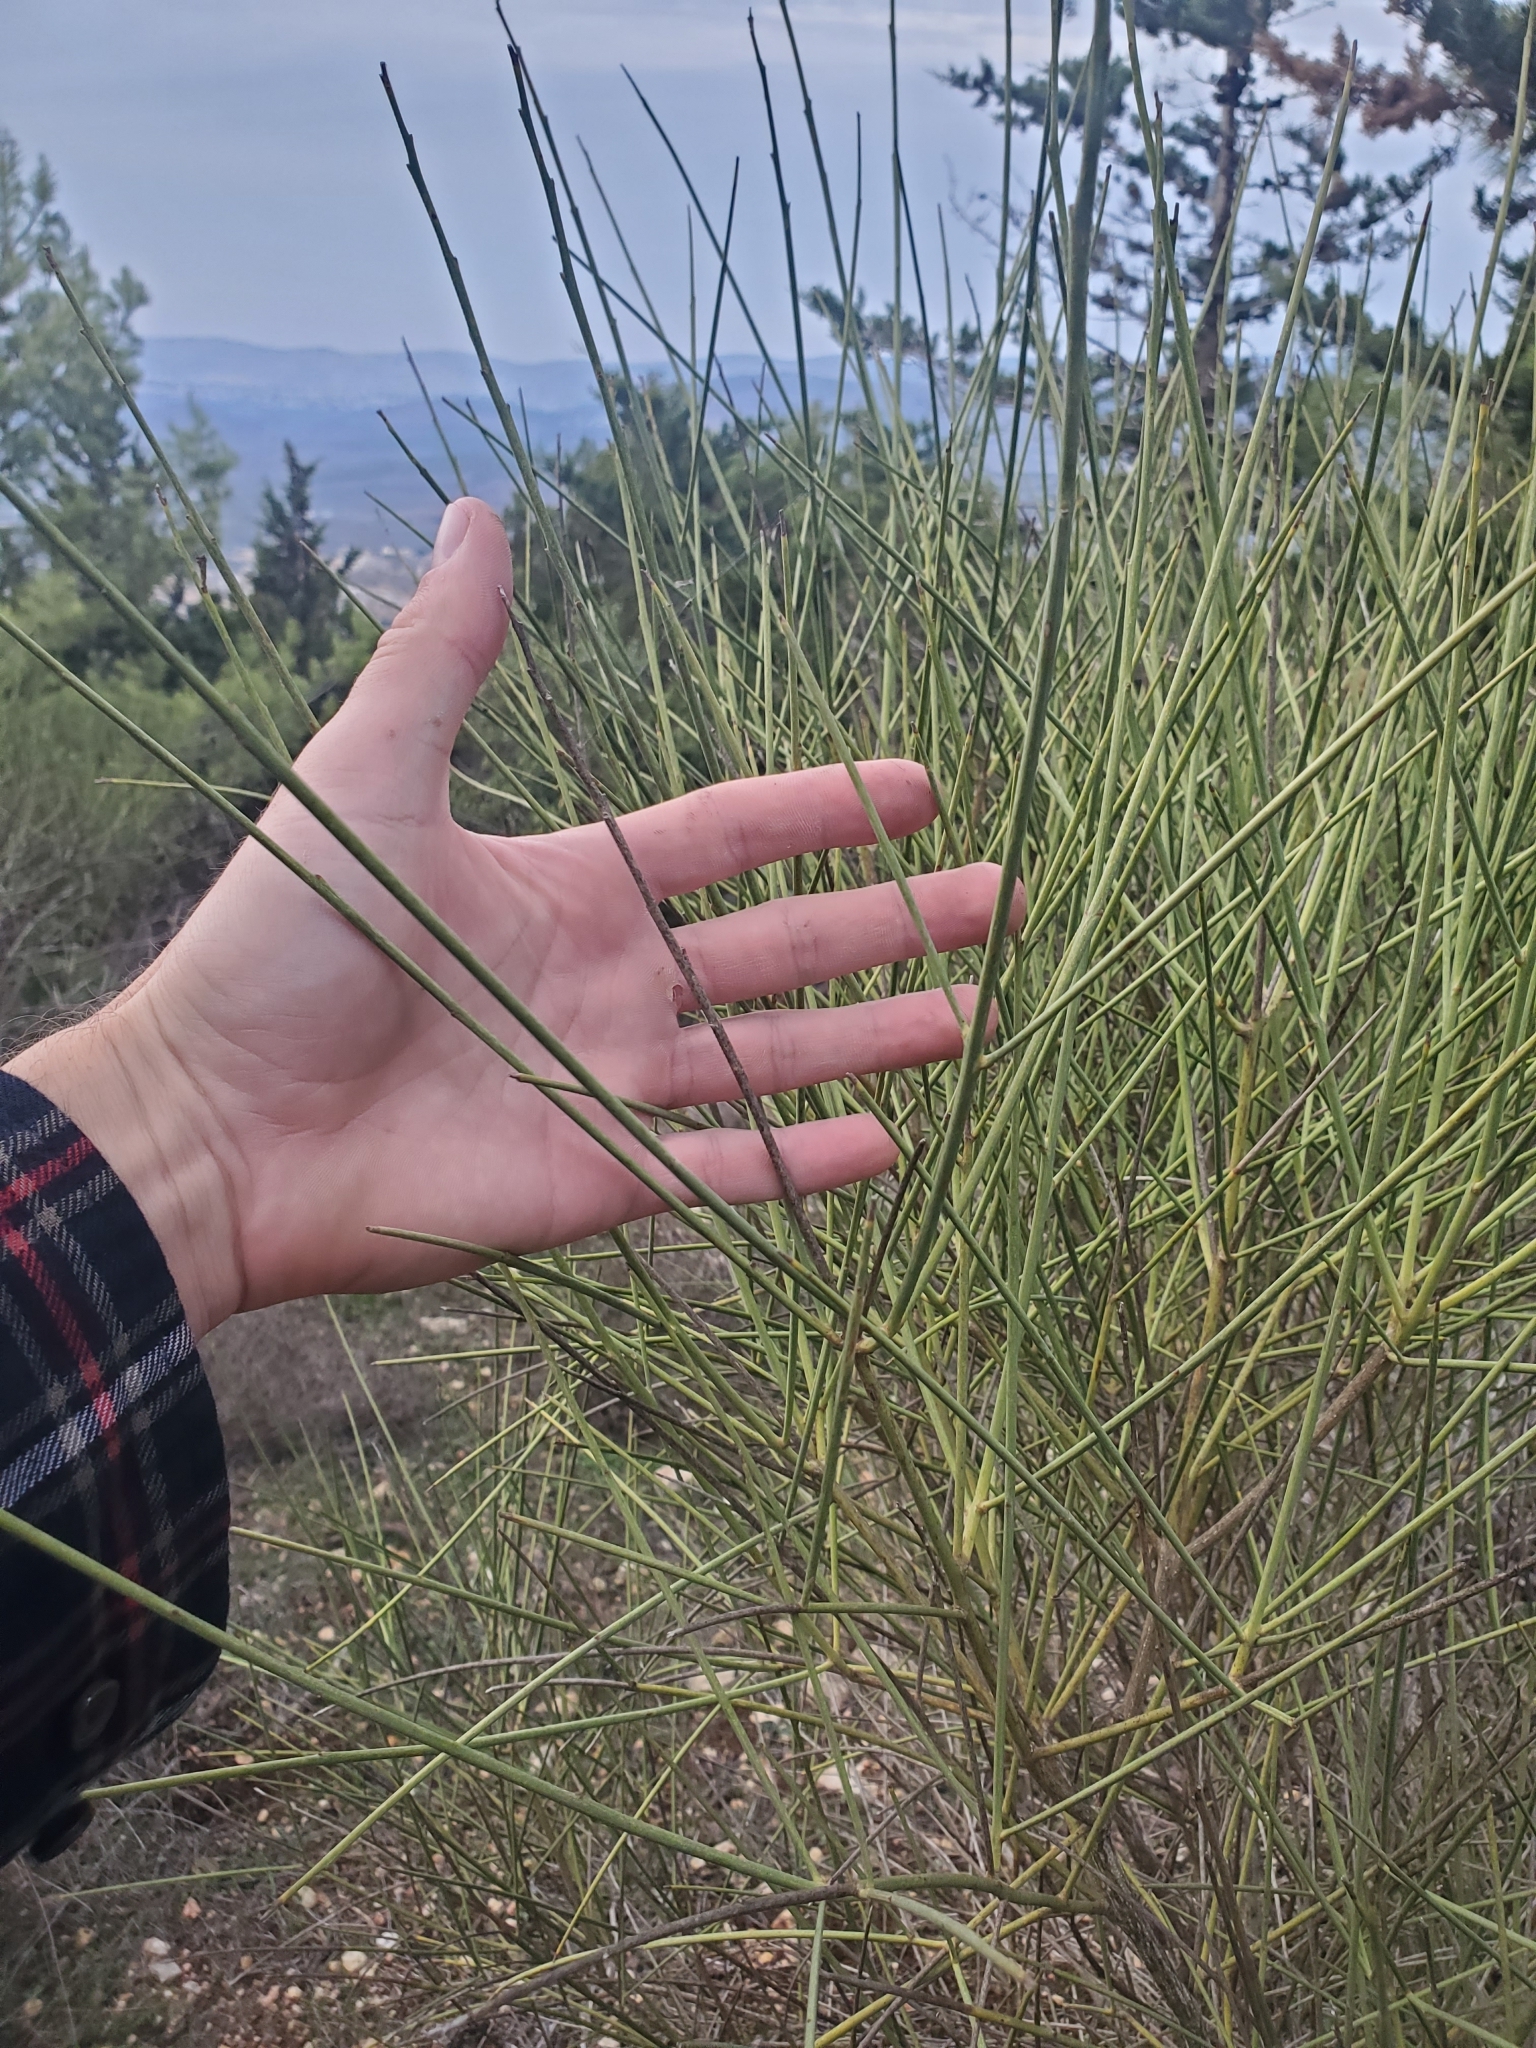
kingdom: Plantae
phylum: Tracheophyta
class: Magnoliopsida
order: Fabales
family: Fabaceae
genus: Spartium
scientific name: Spartium junceum
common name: Spanish broom
